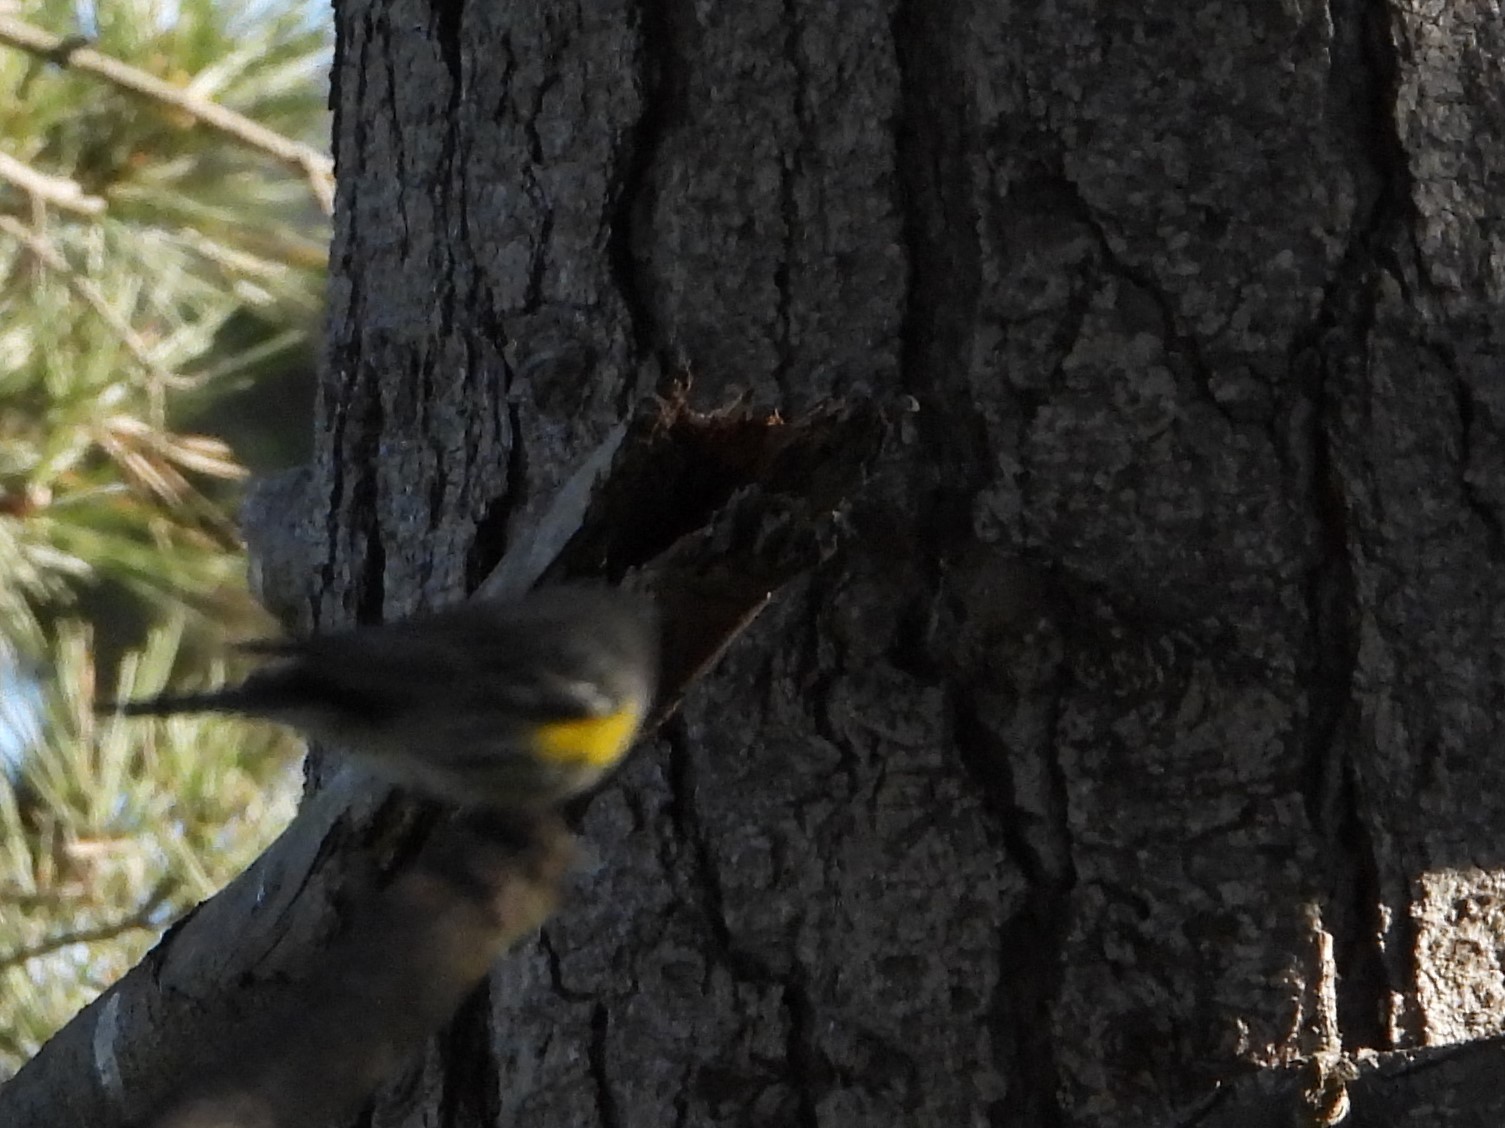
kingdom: Animalia
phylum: Chordata
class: Aves
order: Passeriformes
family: Parulidae
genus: Setophaga
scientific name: Setophaga coronata
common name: Myrtle warbler
